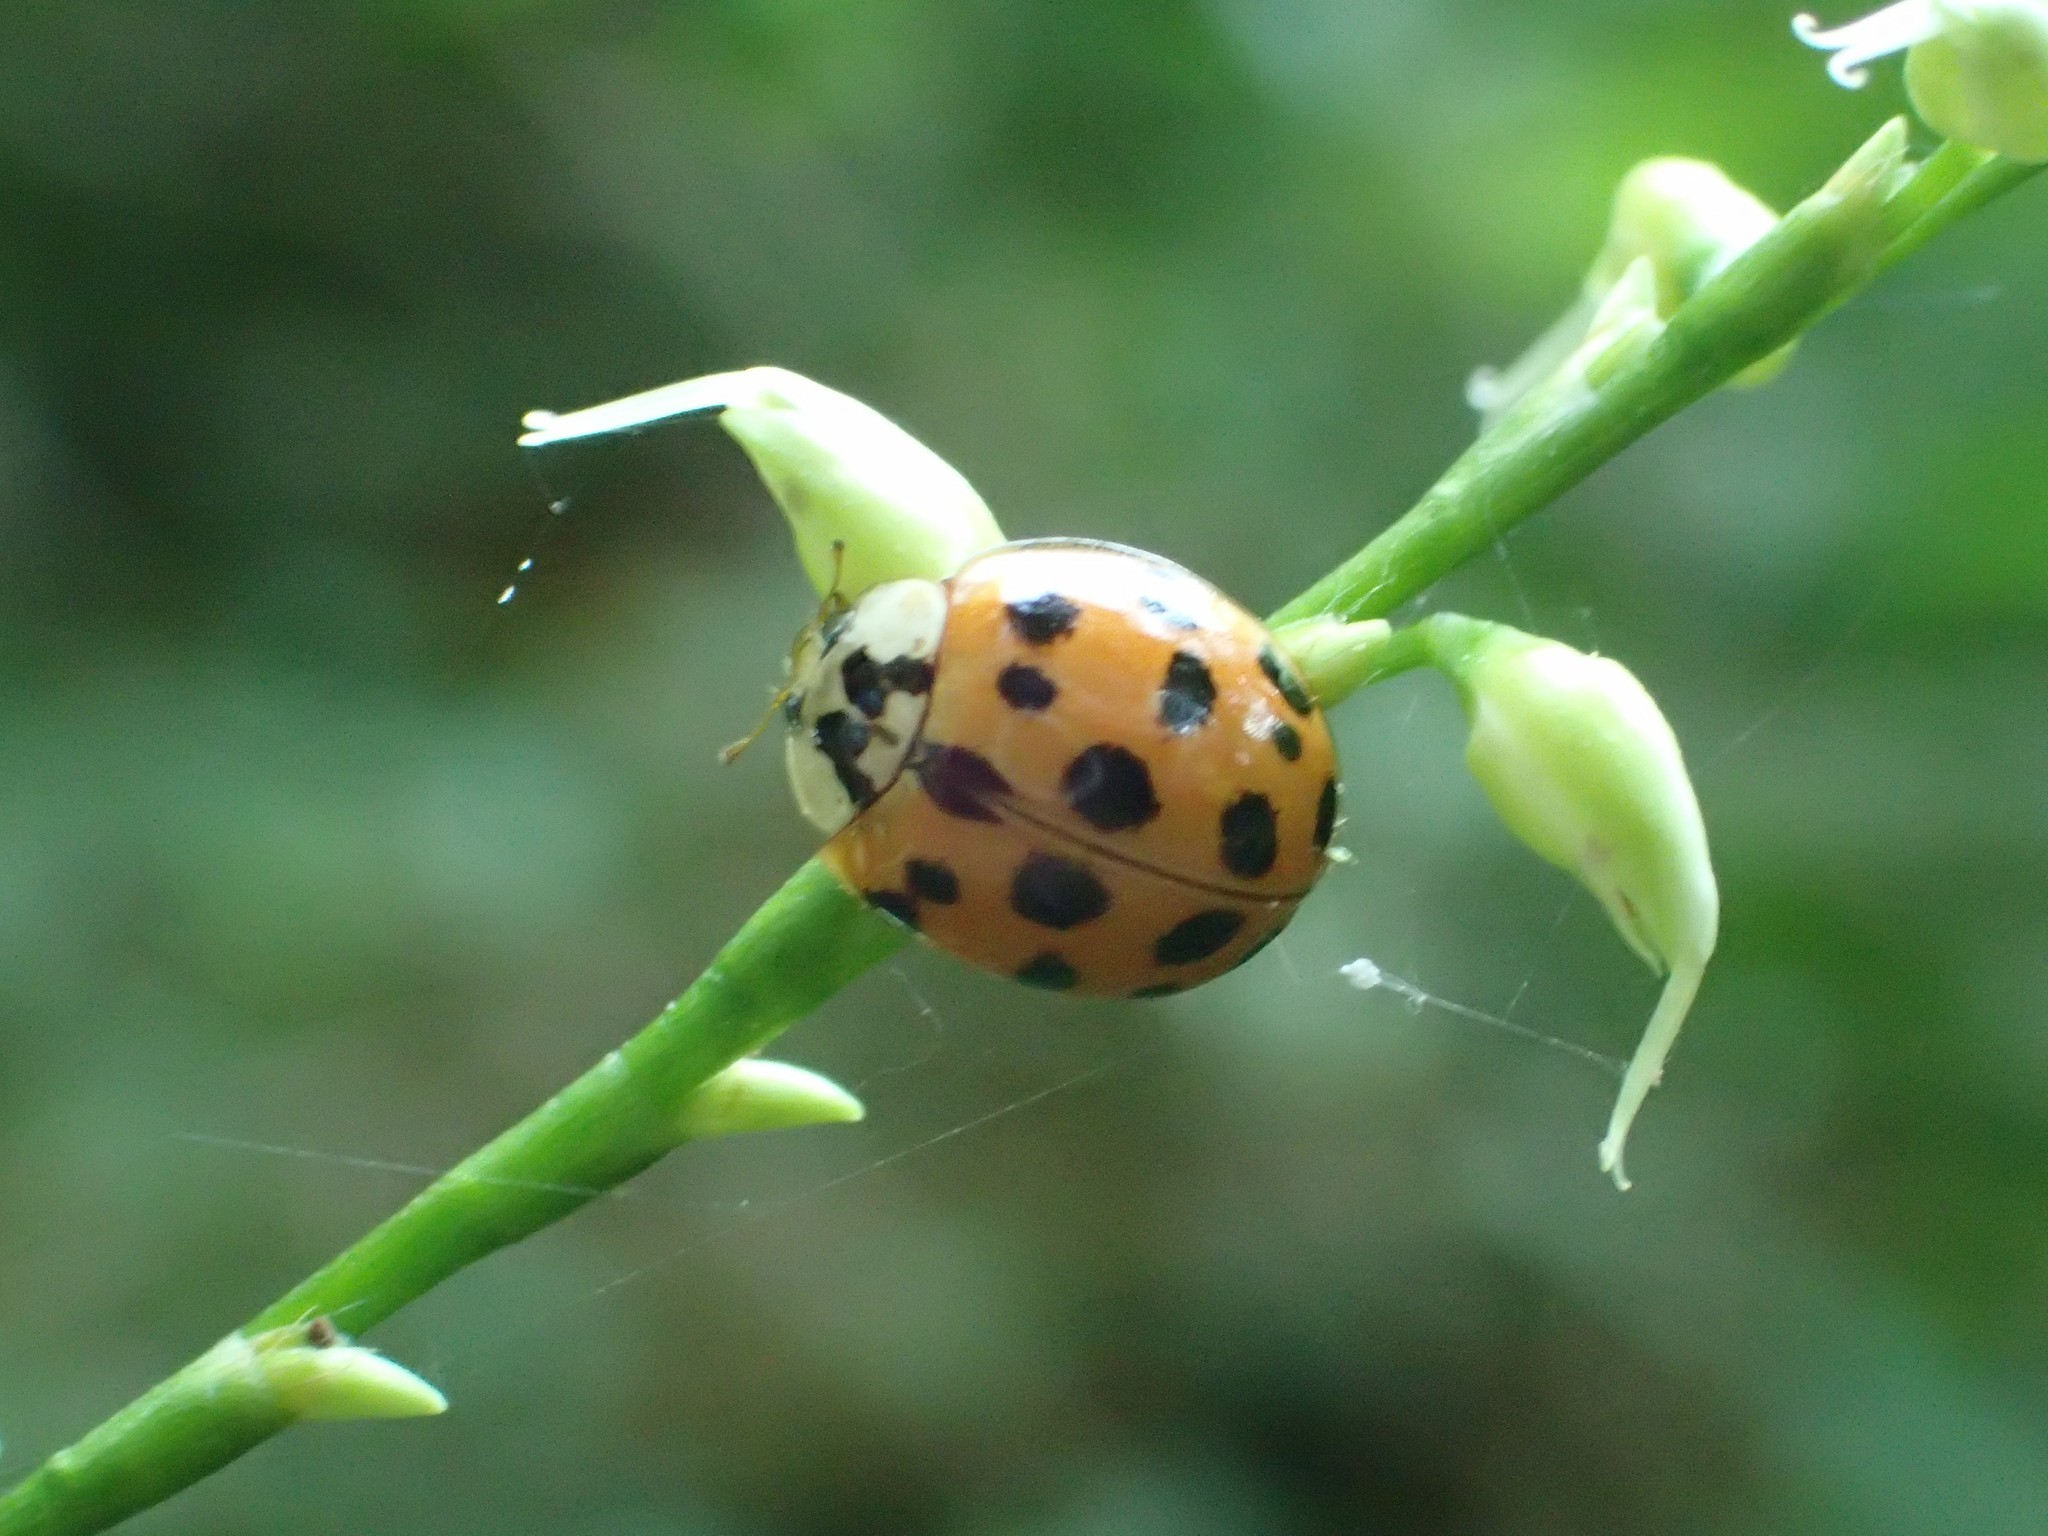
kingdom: Animalia
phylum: Arthropoda
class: Insecta
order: Coleoptera
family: Coccinellidae
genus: Harmonia
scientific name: Harmonia axyridis
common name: Harlequin ladybird
